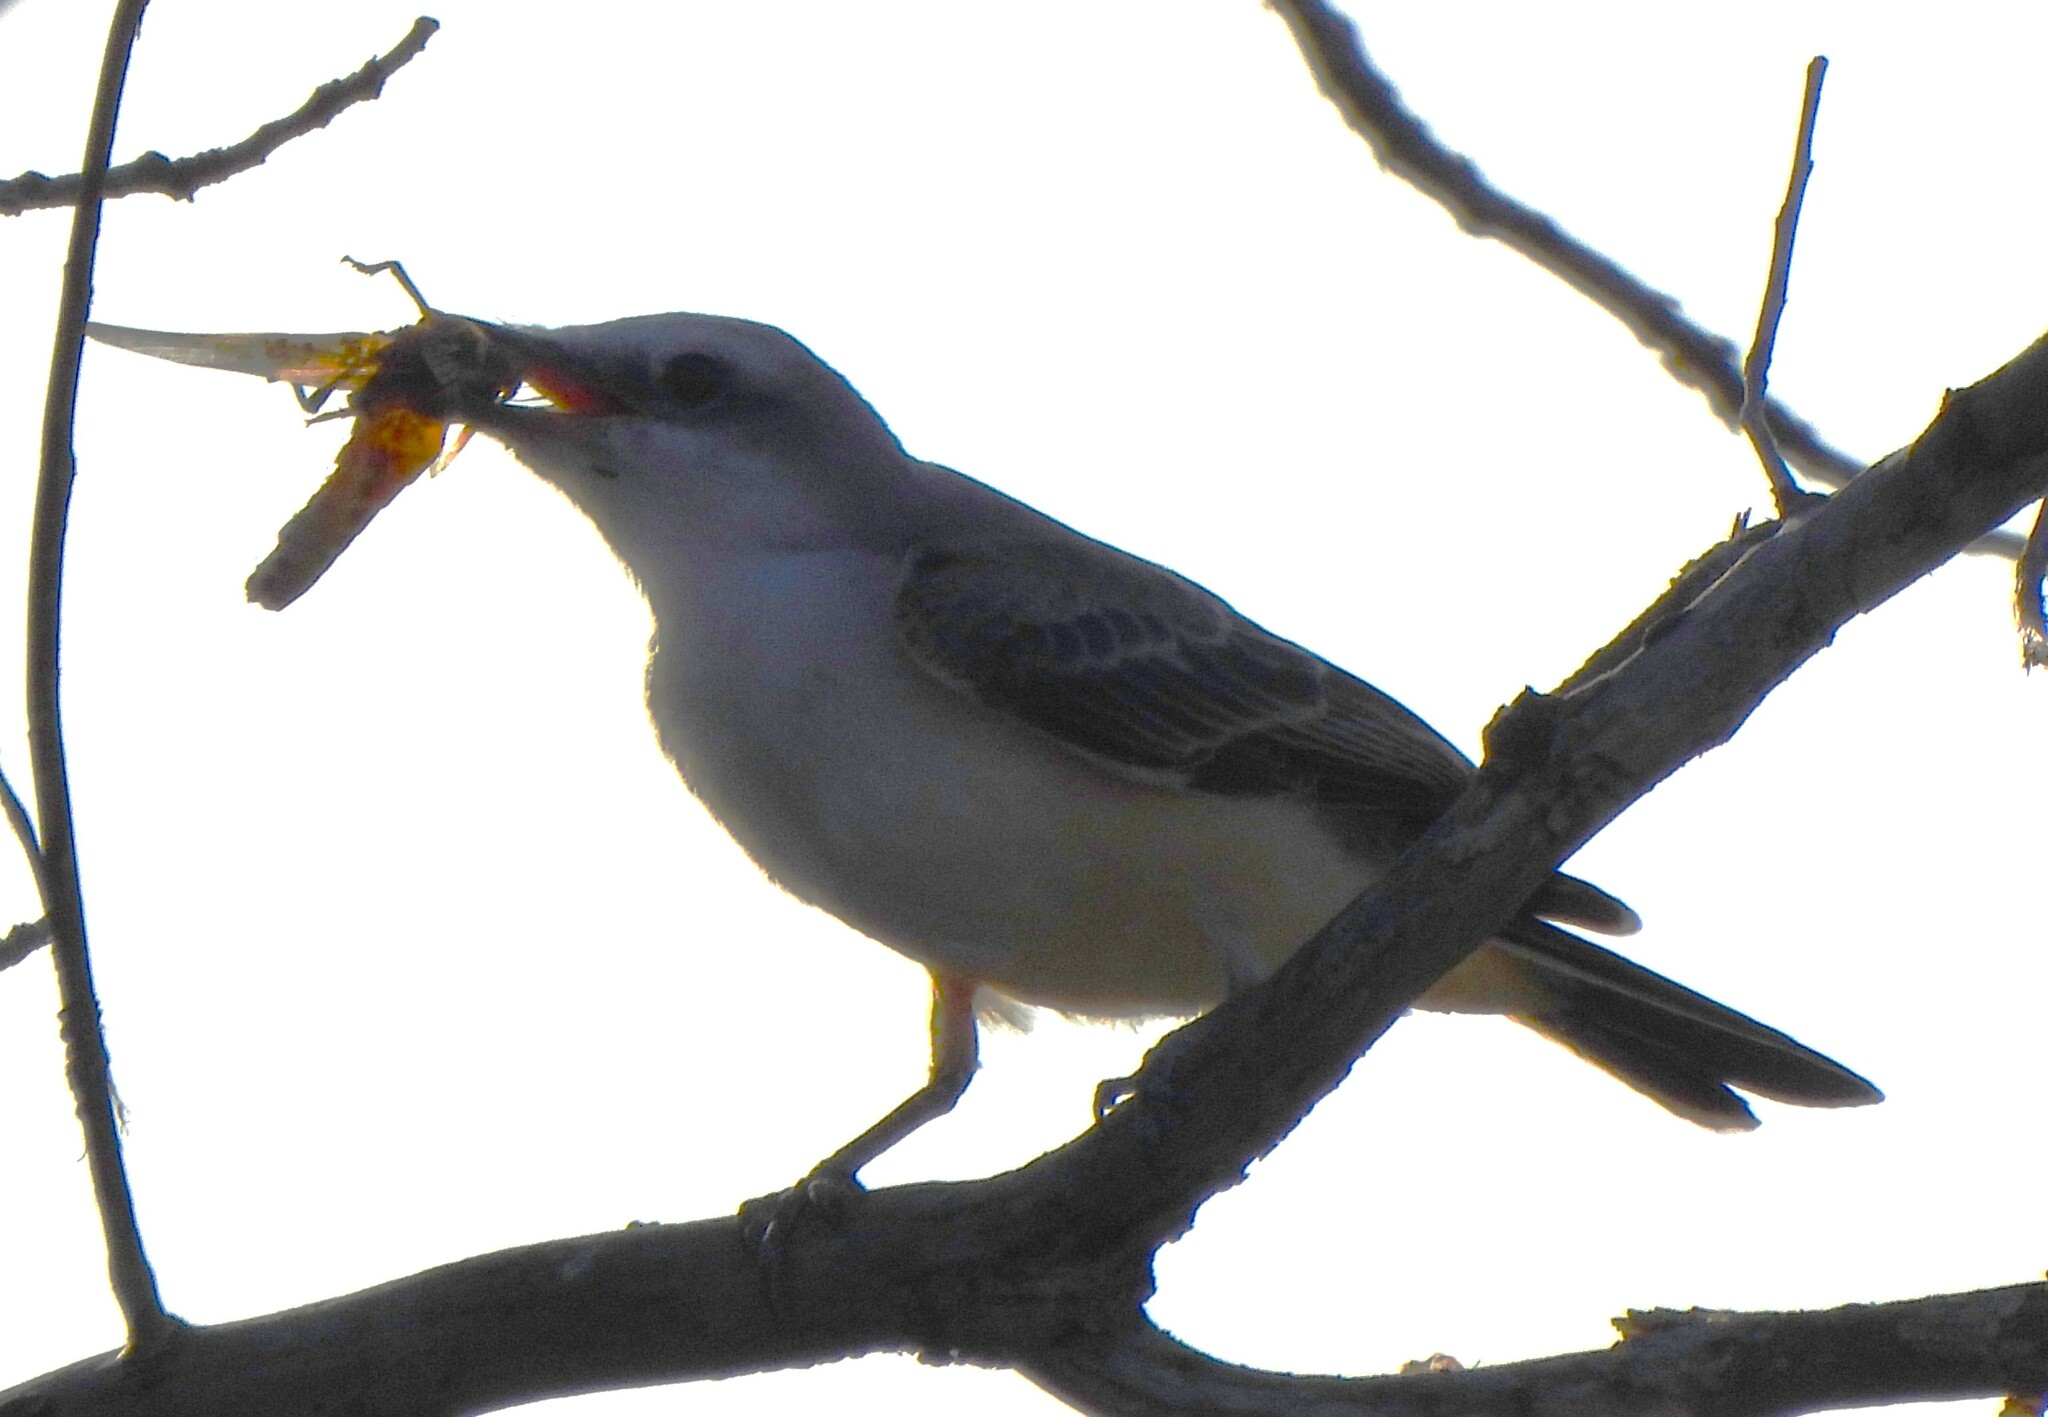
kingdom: Animalia
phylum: Chordata
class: Aves
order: Passeriformes
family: Tyrannidae
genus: Tyrannus
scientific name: Tyrannus forficatus
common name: Scissor-tailed flycatcher
